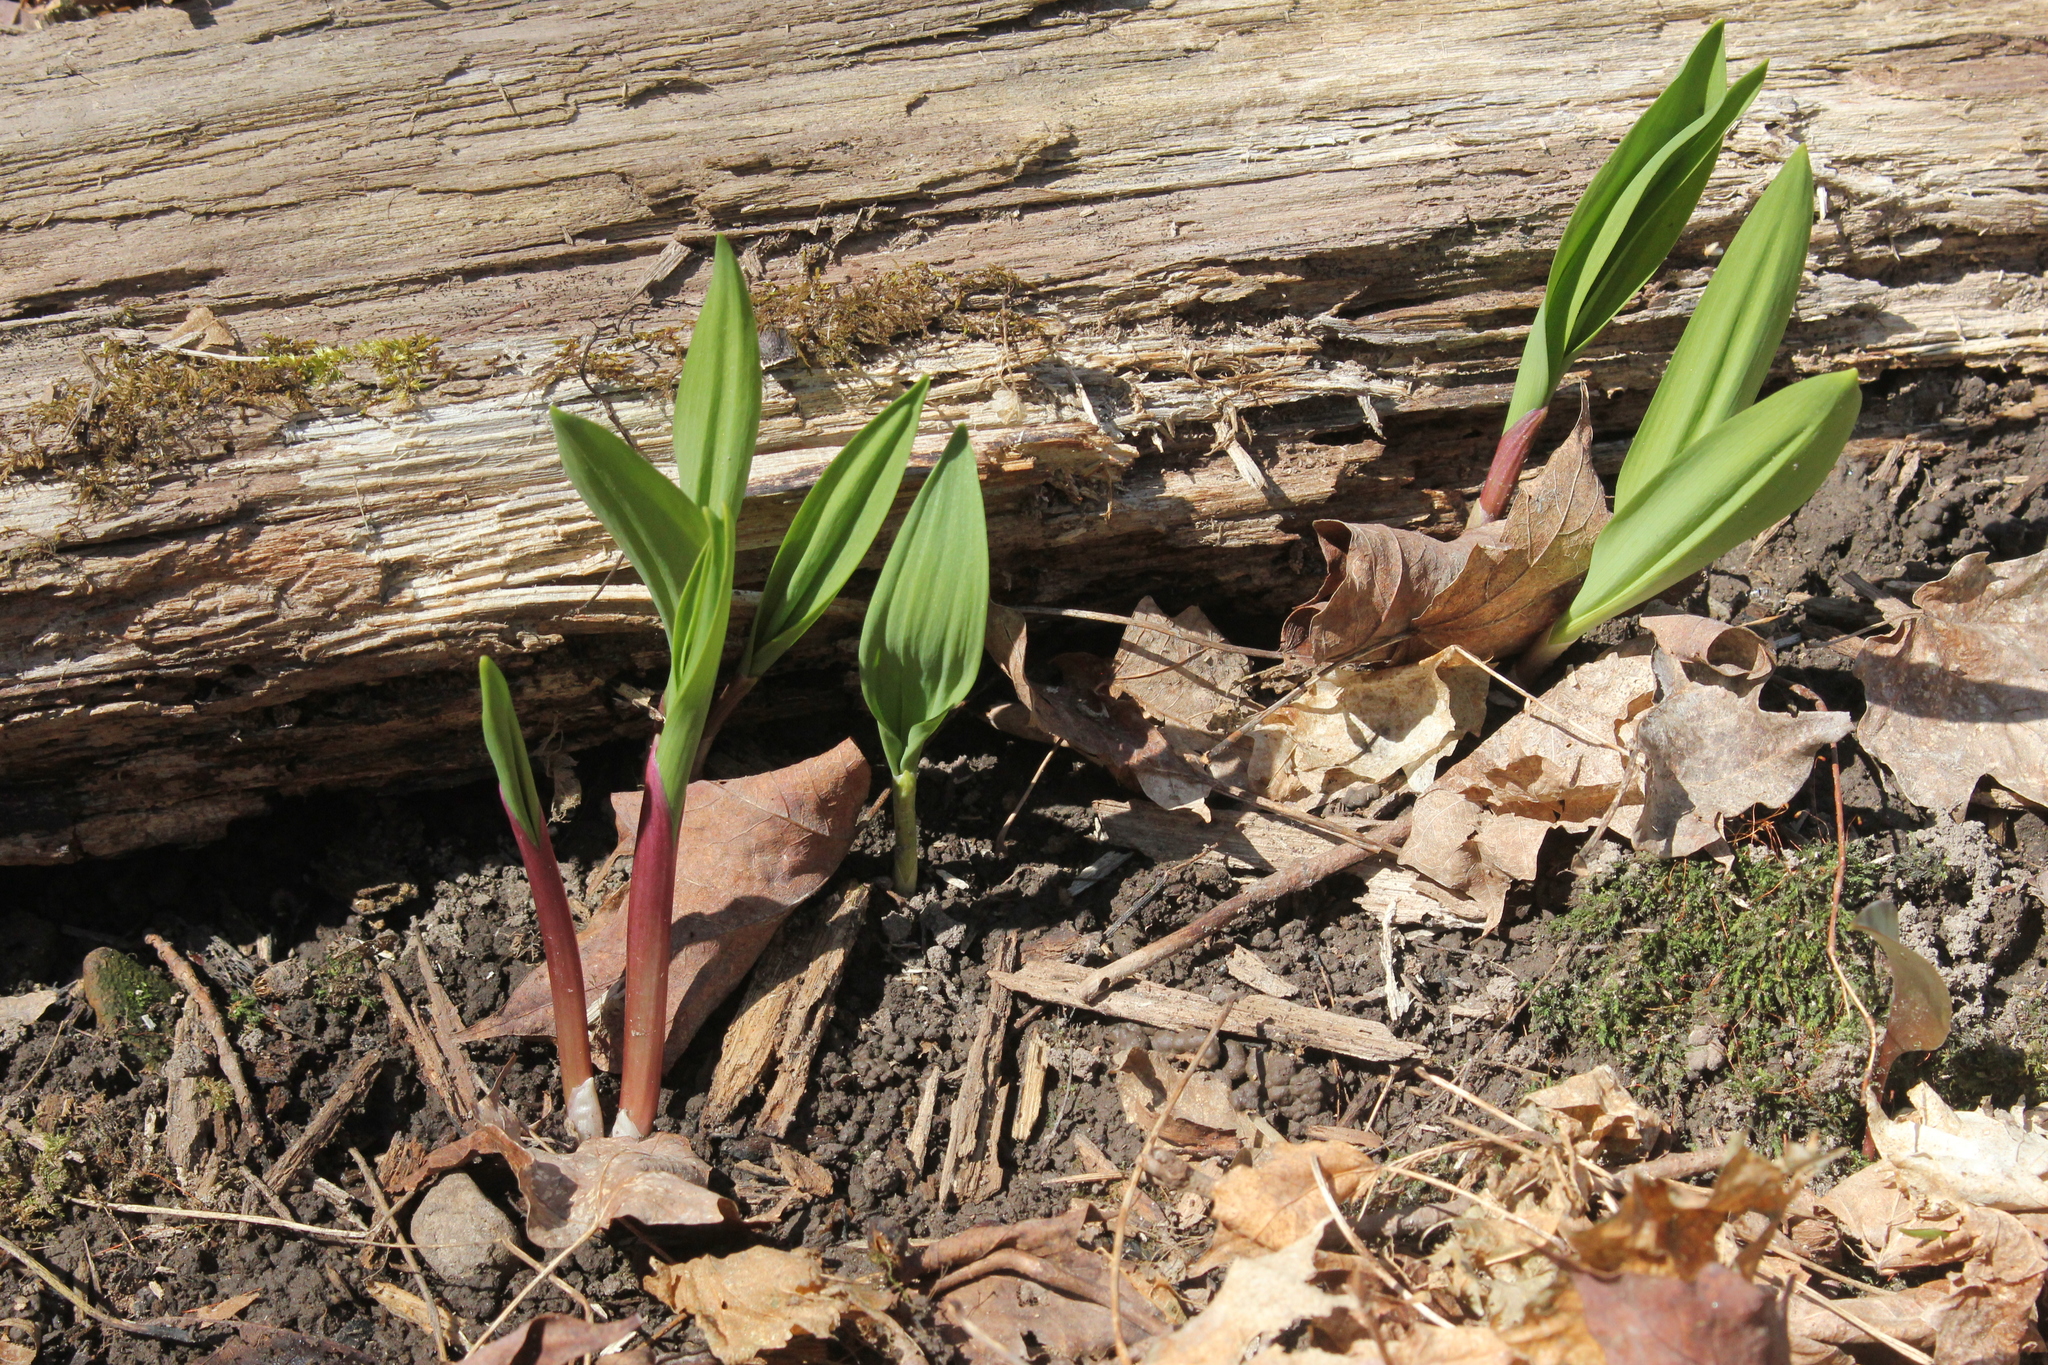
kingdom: Plantae
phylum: Tracheophyta
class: Liliopsida
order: Asparagales
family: Amaryllidaceae
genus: Allium
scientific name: Allium tricoccum
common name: Ramp
